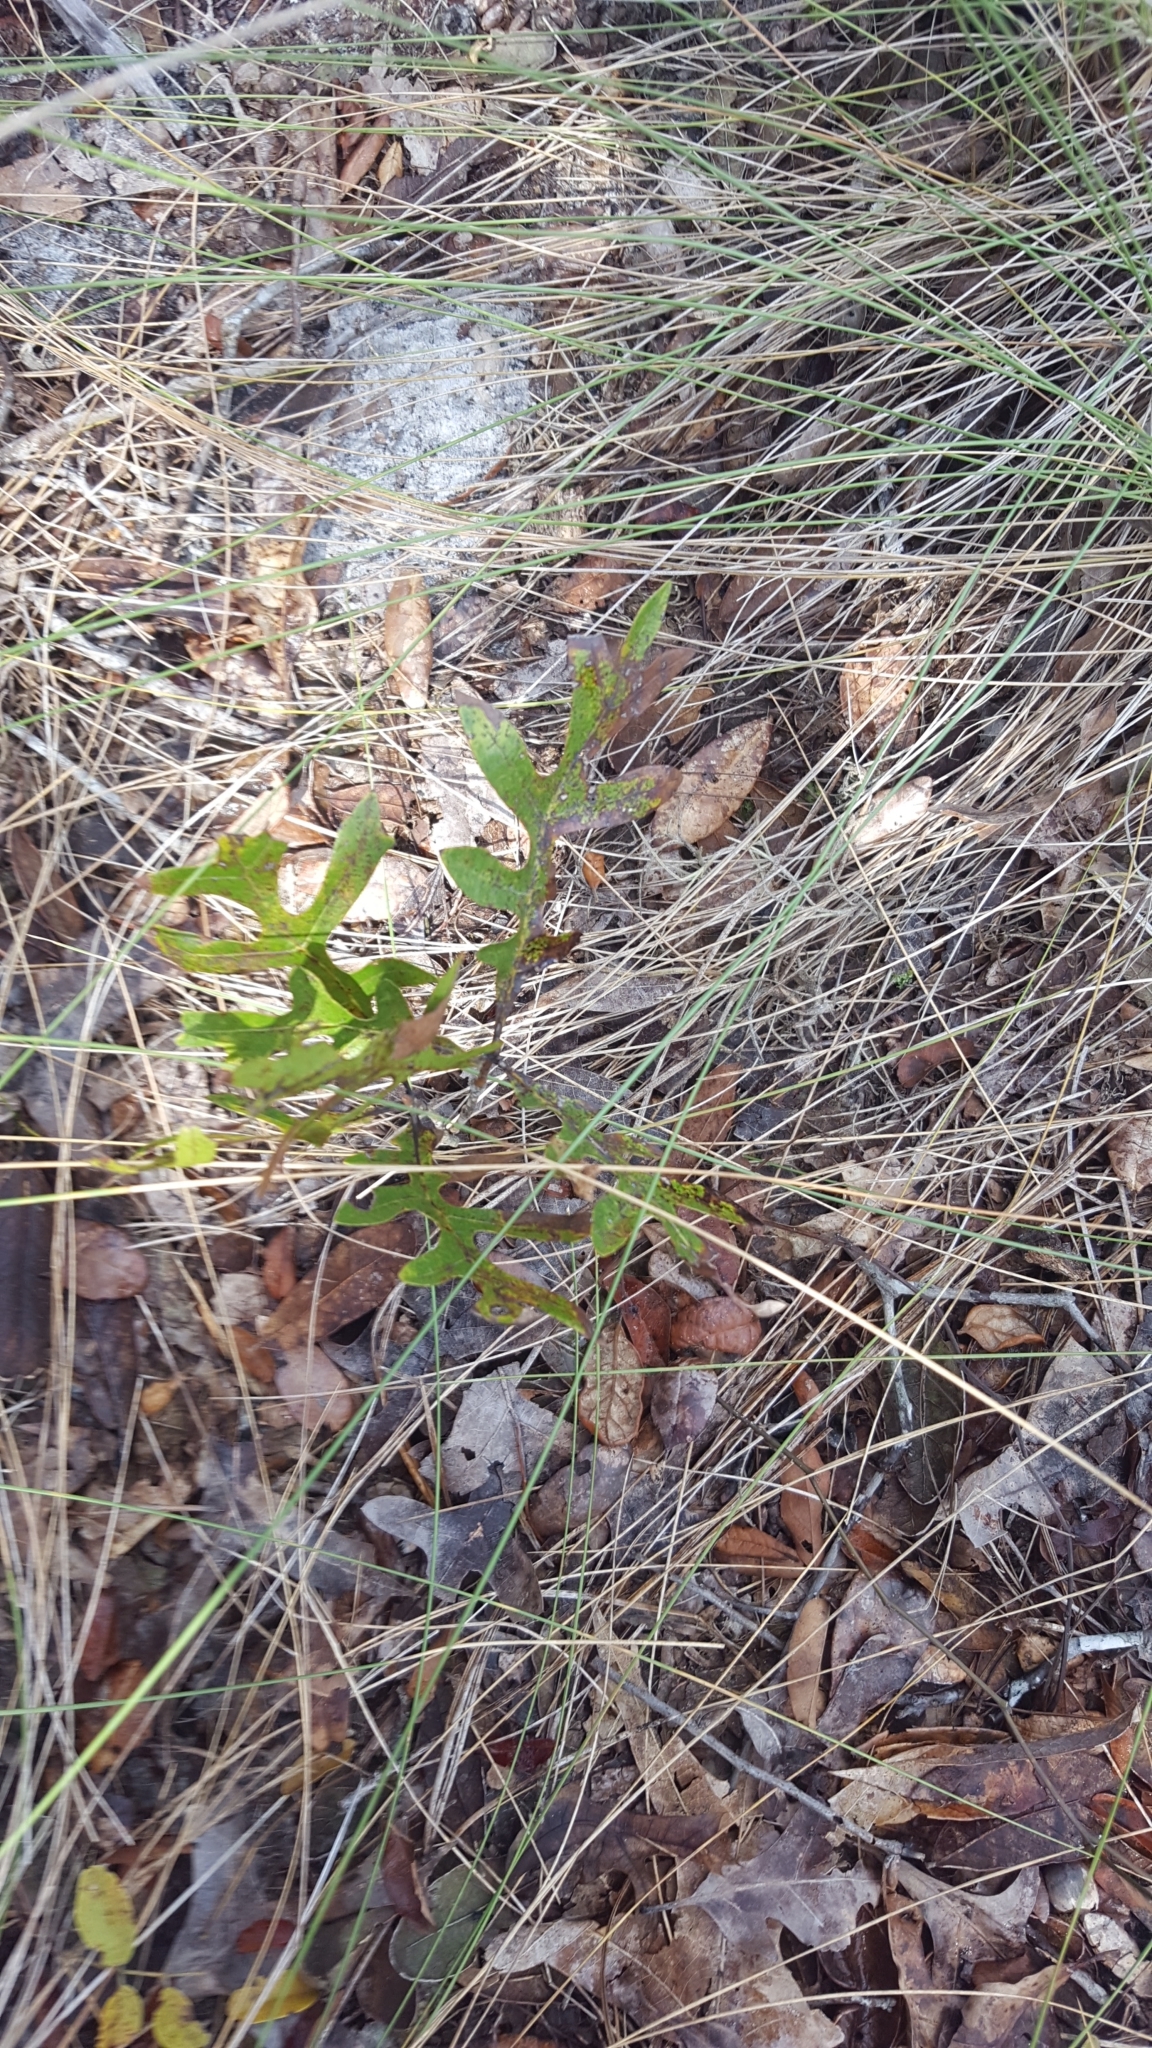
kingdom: Plantae
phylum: Tracheophyta
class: Magnoliopsida
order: Fagales
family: Fagaceae
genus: Quercus
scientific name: Quercus laevis
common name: Turkey oak
